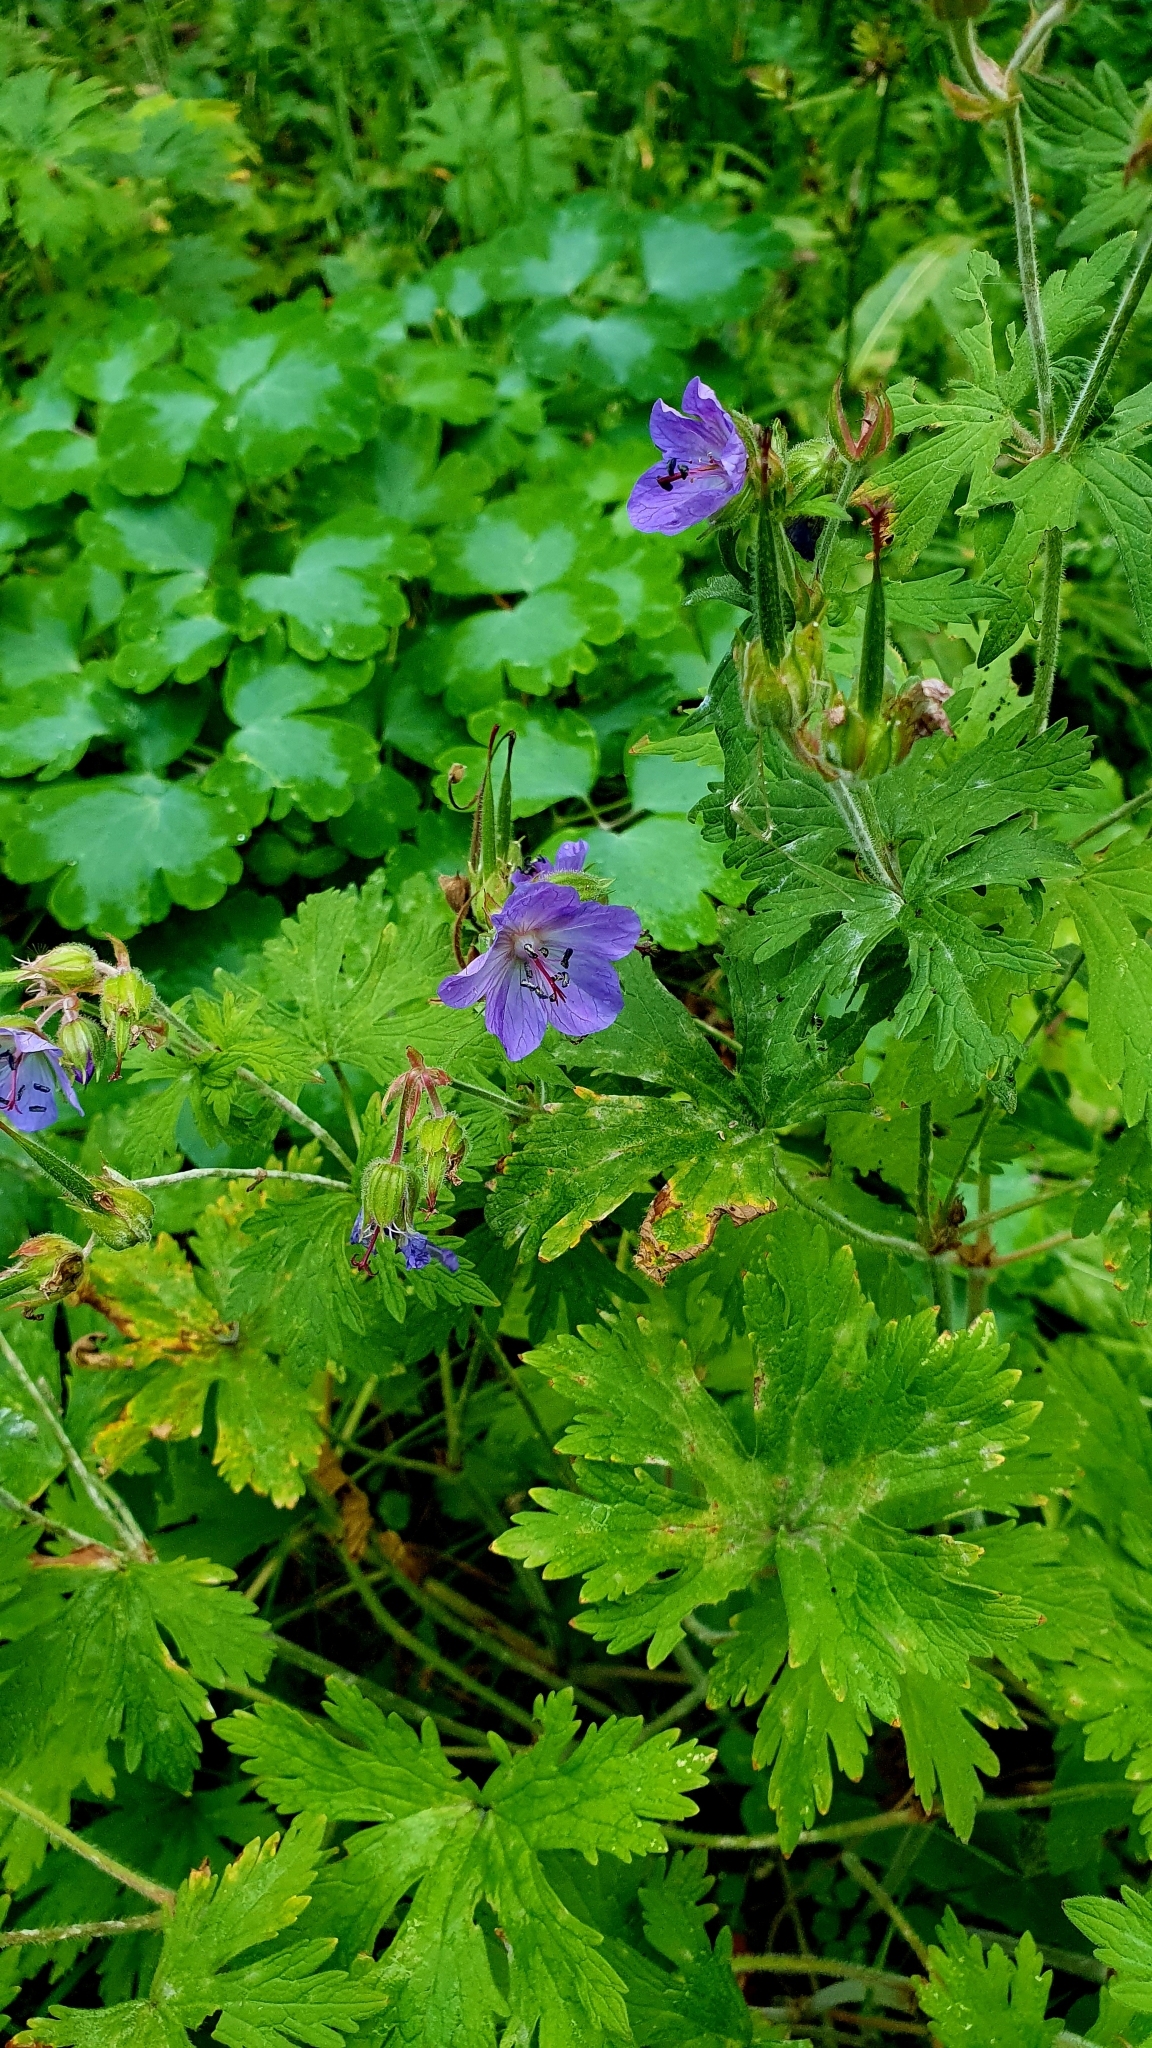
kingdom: Plantae
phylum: Tracheophyta
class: Magnoliopsida
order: Geraniales
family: Geraniaceae
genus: Geranium
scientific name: Geranium pratense
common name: Meadow crane's-bill
